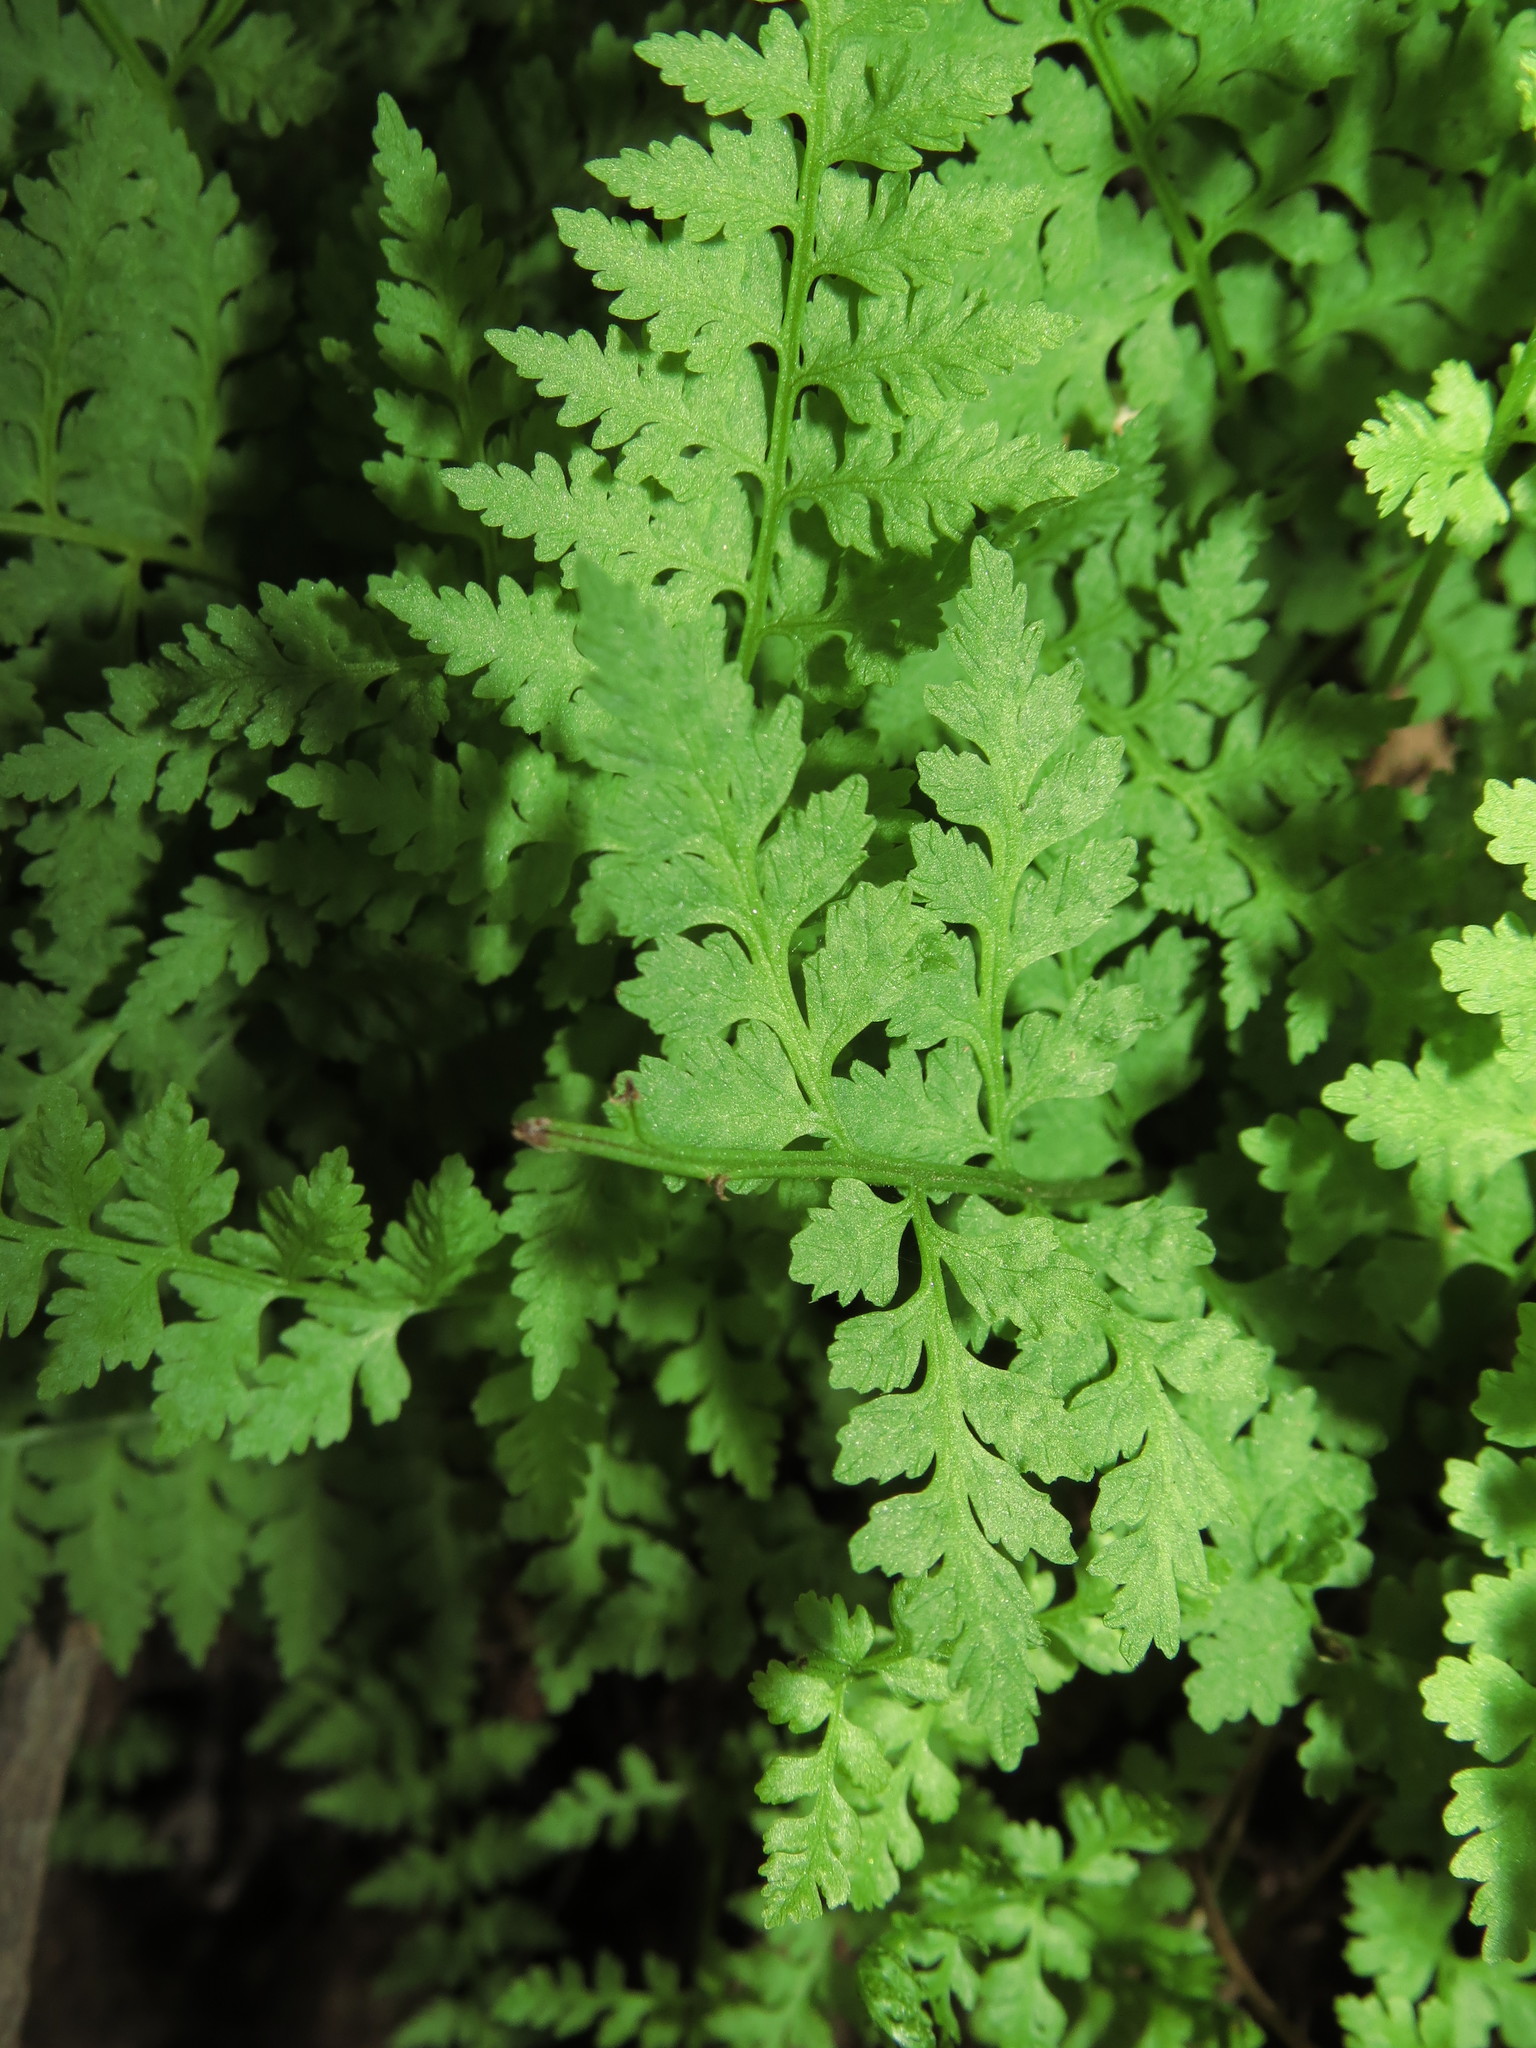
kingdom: Plantae
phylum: Tracheophyta
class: Polypodiopsida
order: Polypodiales
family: Cystopteridaceae
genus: Cystopteris
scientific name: Cystopteris fragilis
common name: Brittle bladder fern
